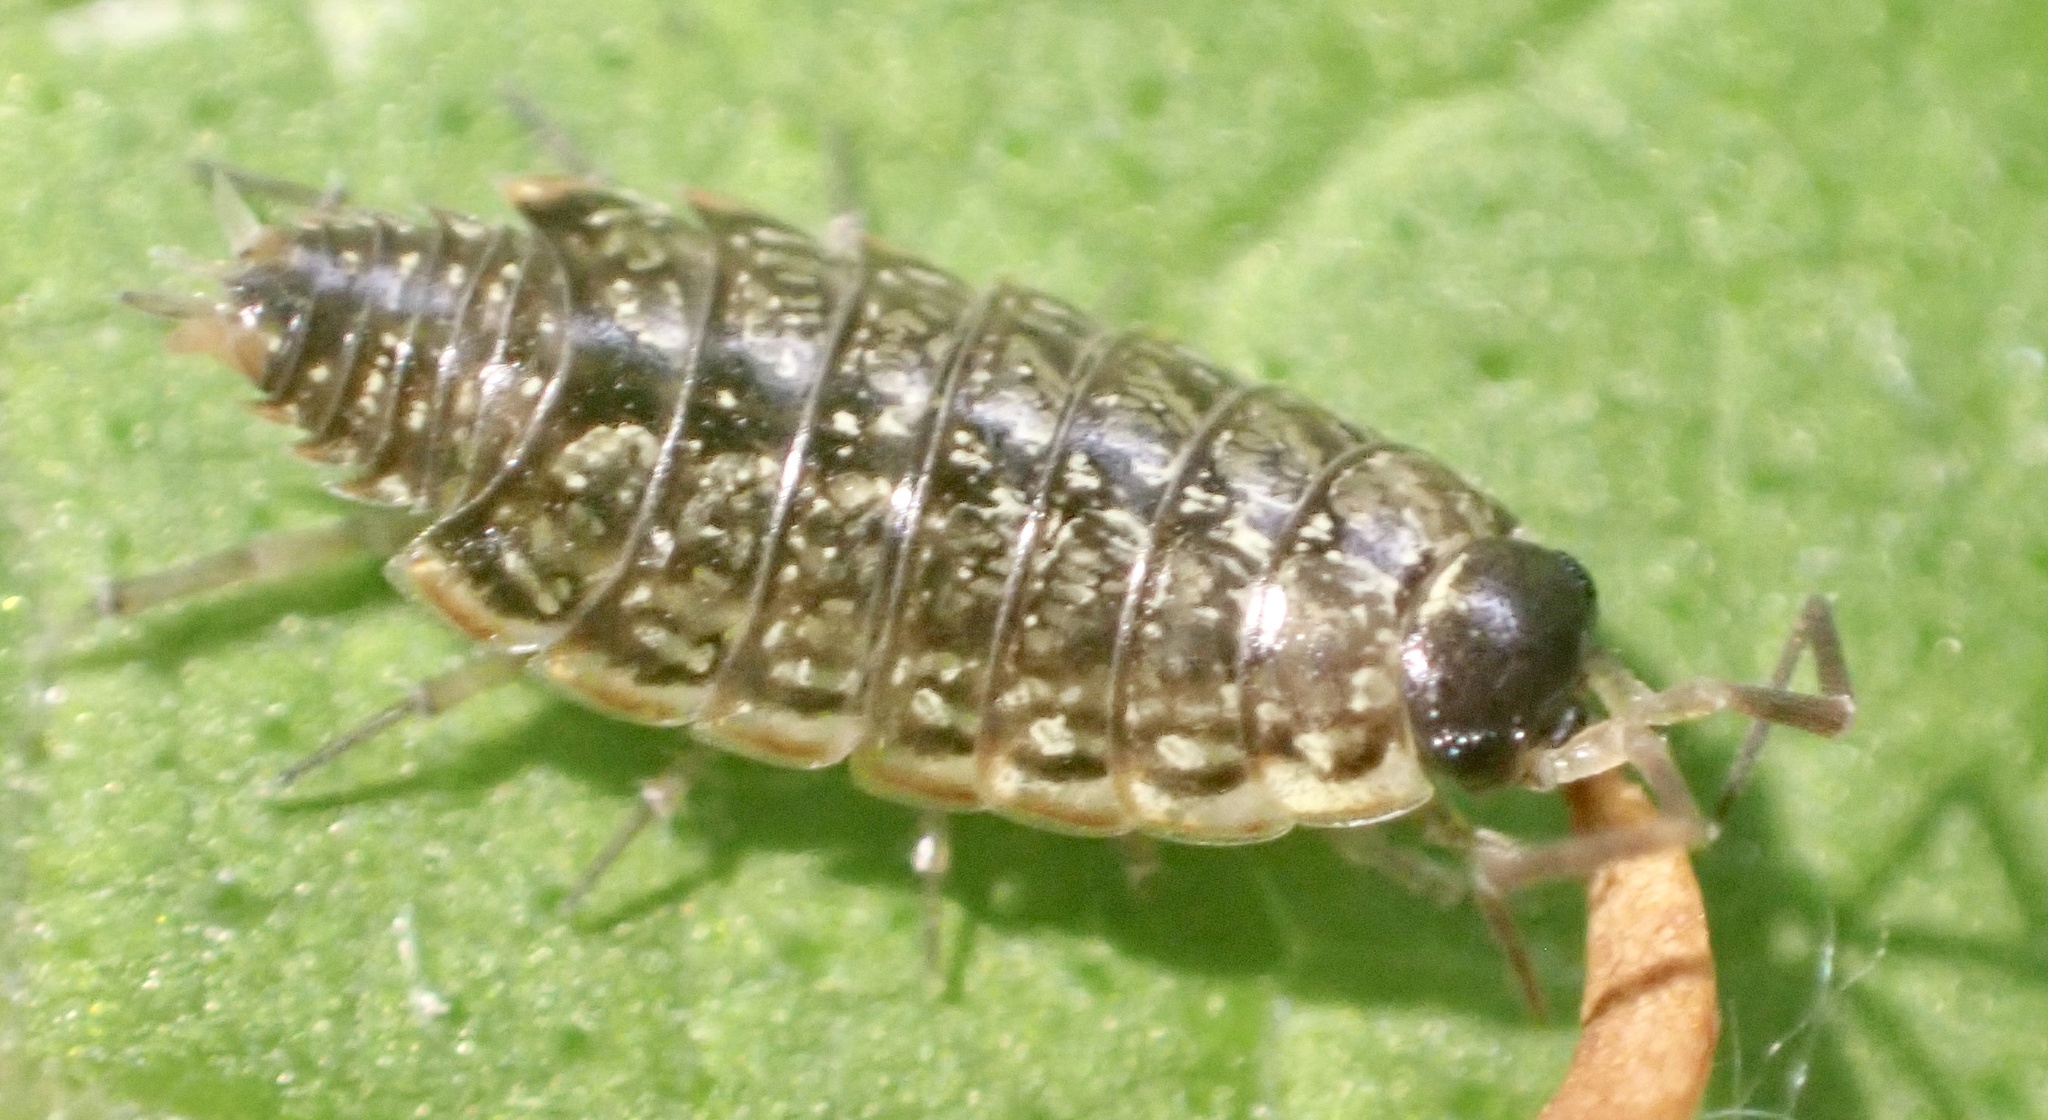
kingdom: Animalia
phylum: Arthropoda
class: Malacostraca
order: Isopoda
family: Philosciidae
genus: Philoscia
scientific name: Philoscia muscorum
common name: Common striped woodlouse
